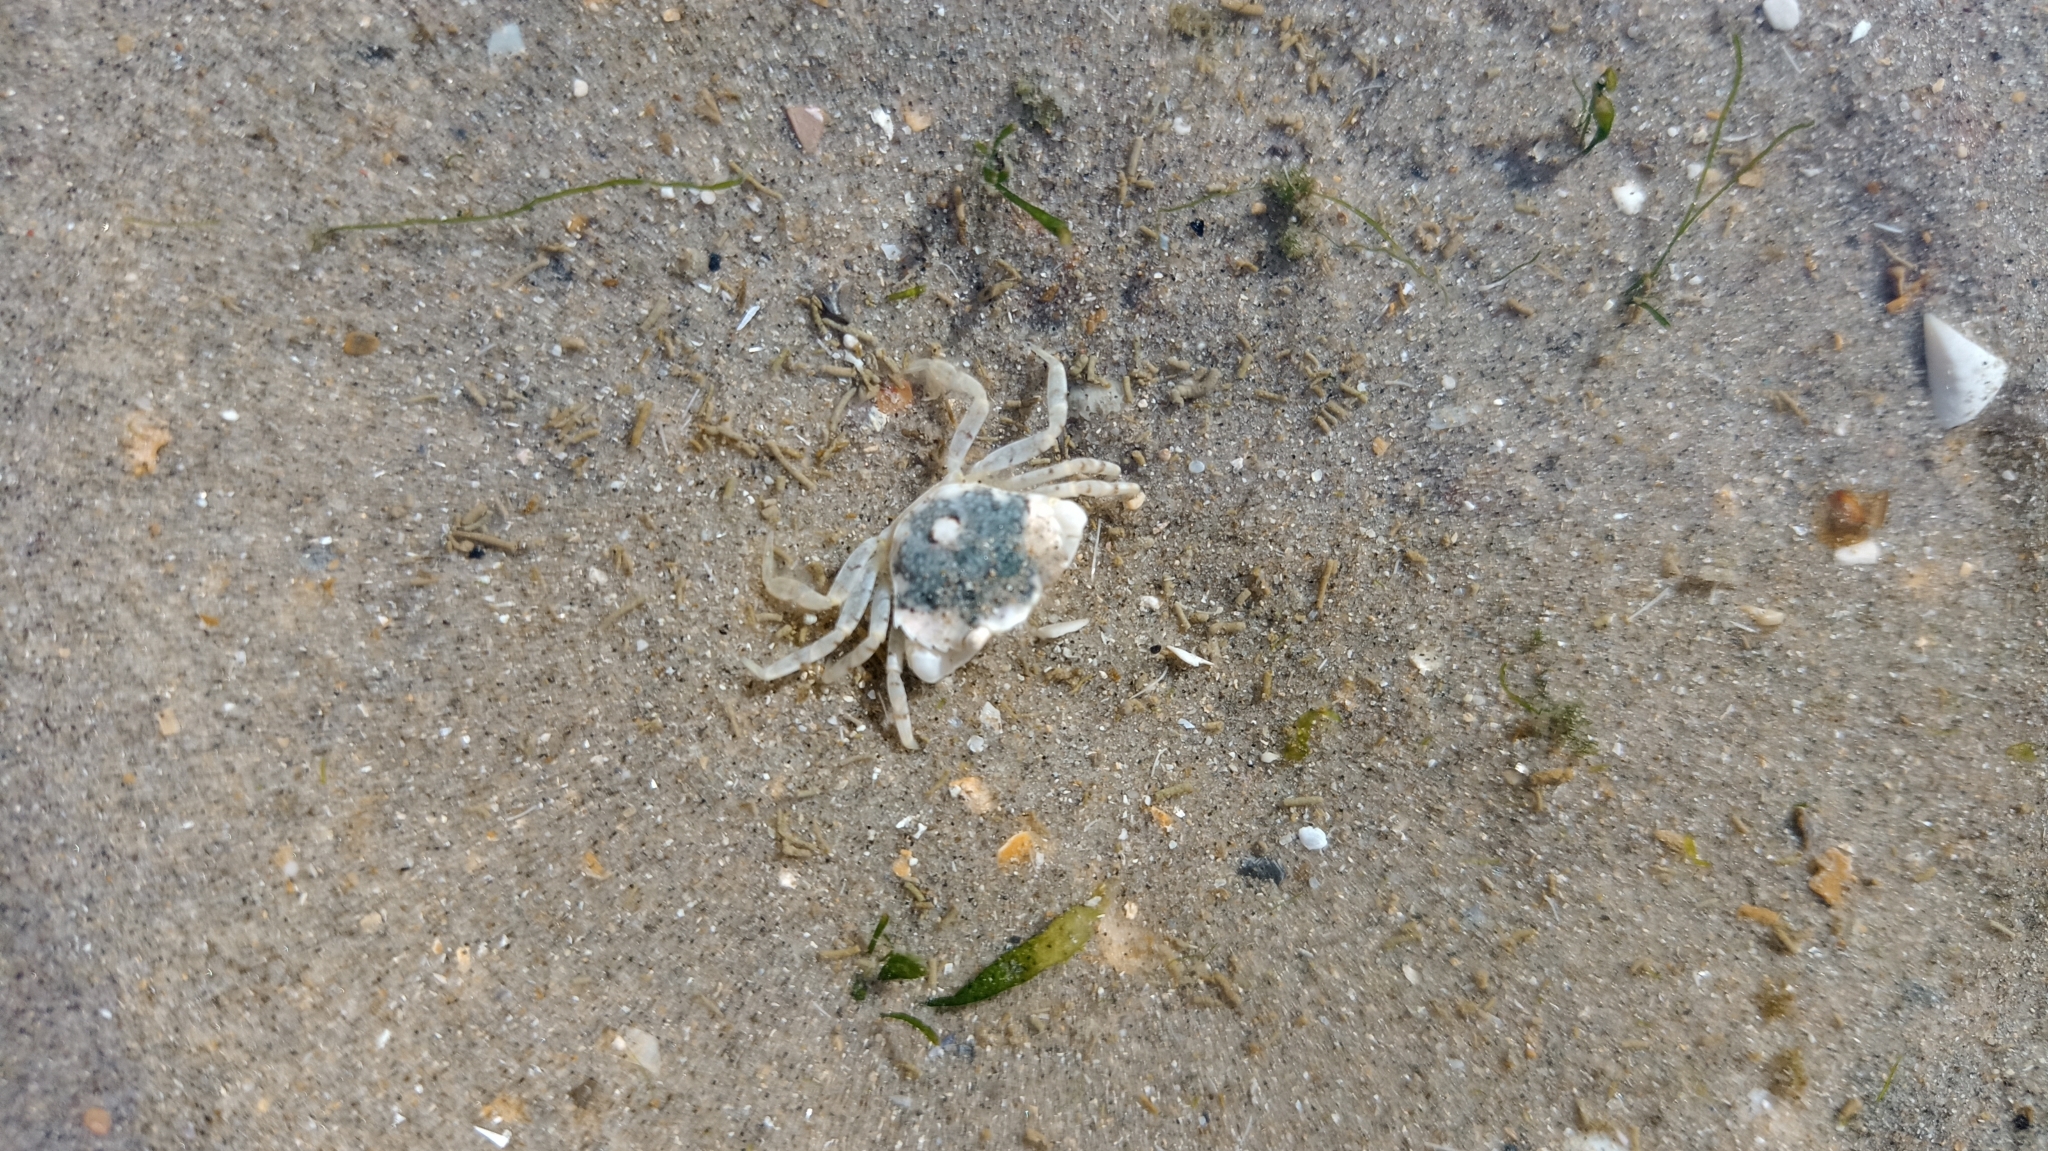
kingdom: Animalia
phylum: Arthropoda
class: Malacostraca
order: Decapoda
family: Carcinidae
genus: Carcinus
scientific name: Carcinus maenas
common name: European green crab
